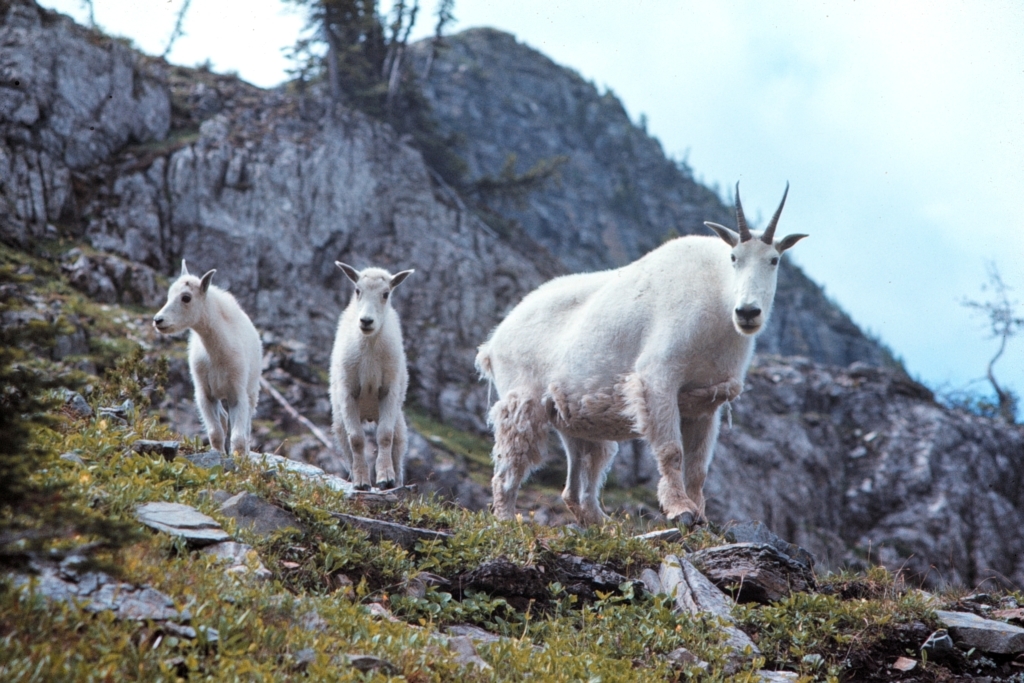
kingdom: Animalia
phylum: Chordata
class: Mammalia
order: Artiodactyla
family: Bovidae
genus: Oreamnos
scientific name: Oreamnos americanus
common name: Mountain goat
